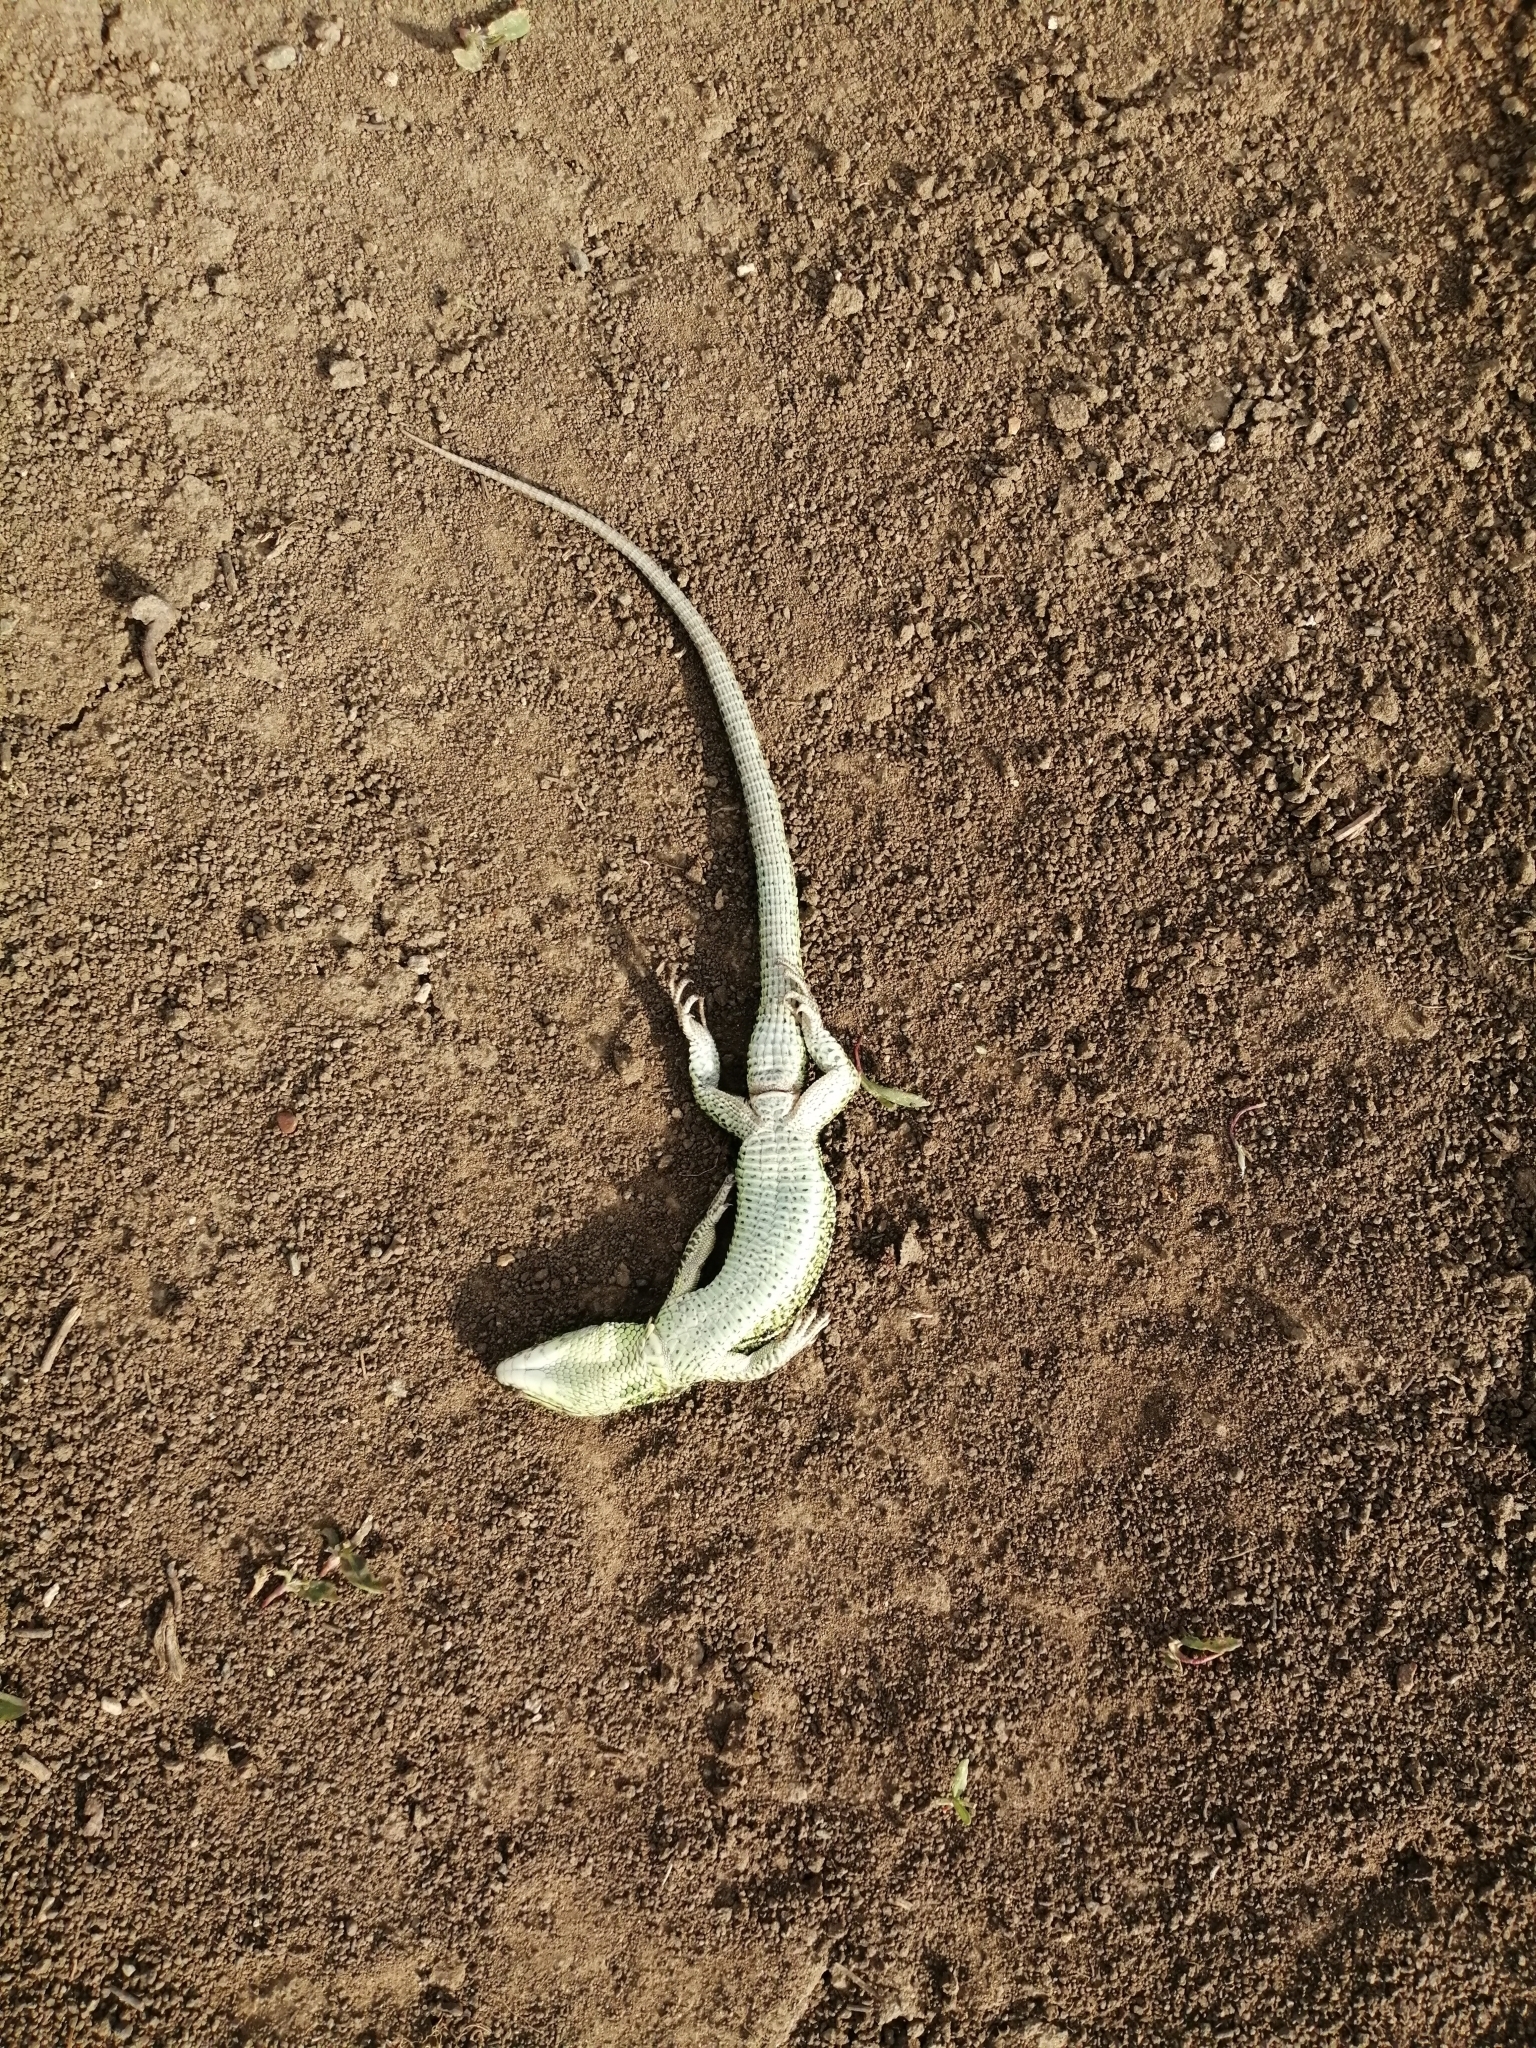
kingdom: Animalia
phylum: Chordata
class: Squamata
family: Lacertidae
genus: Lacerta
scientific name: Lacerta agilis
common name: Sand lizard
